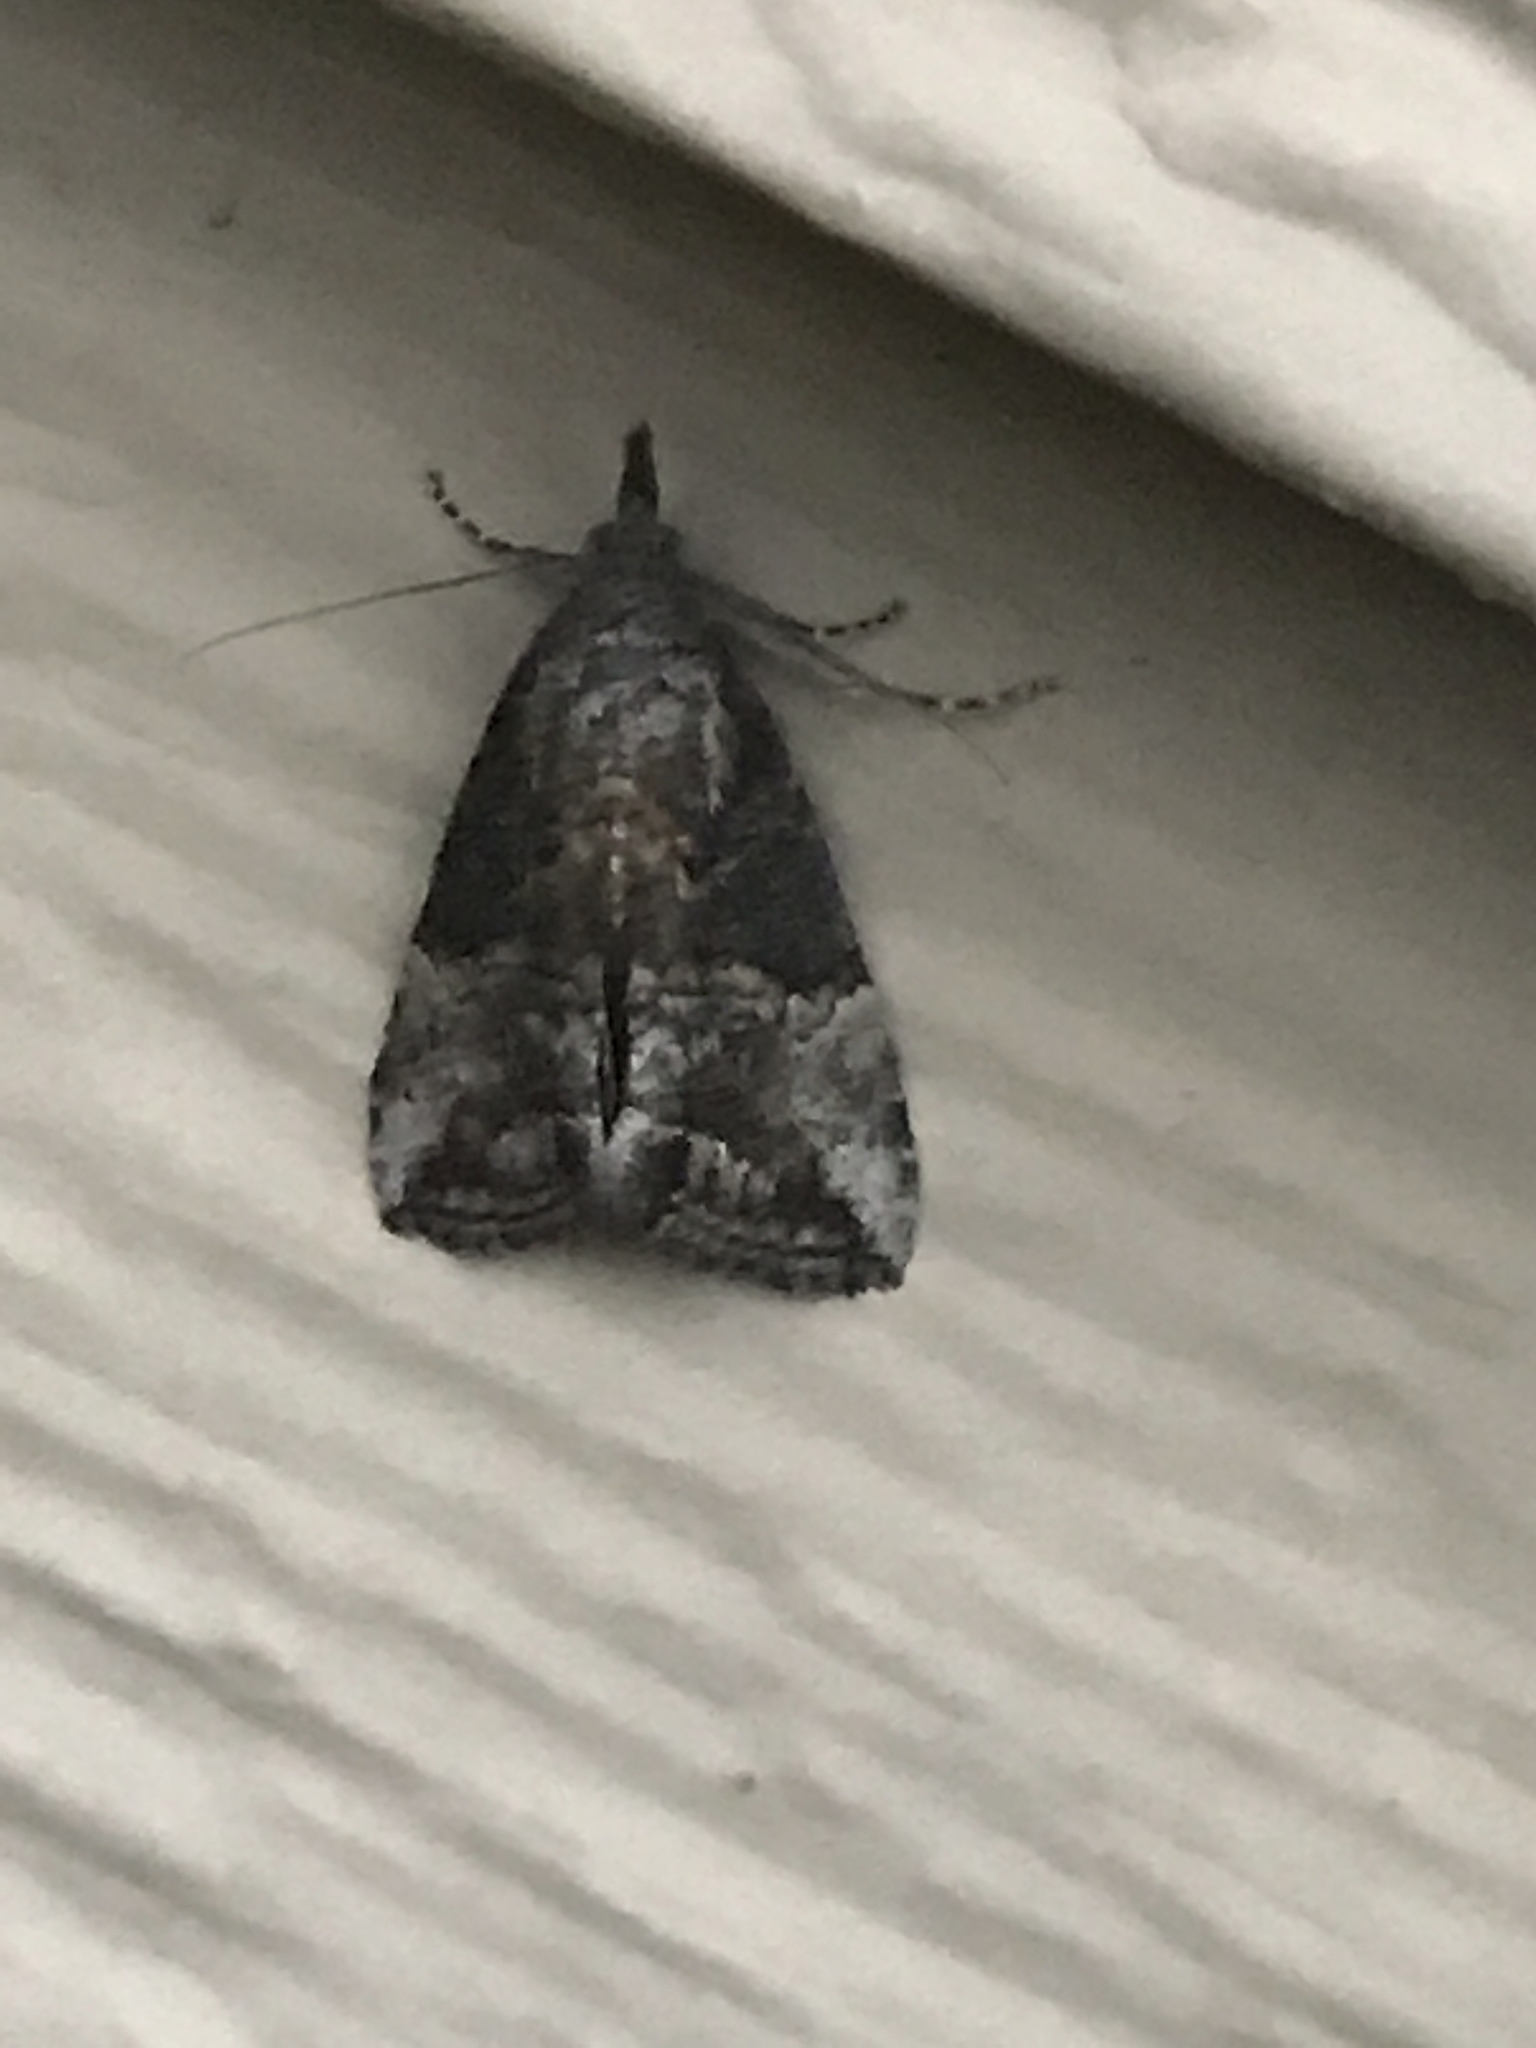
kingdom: Animalia
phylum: Arthropoda
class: Insecta
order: Lepidoptera
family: Erebidae
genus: Hypena
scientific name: Hypena scabra
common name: Green cloverworm
